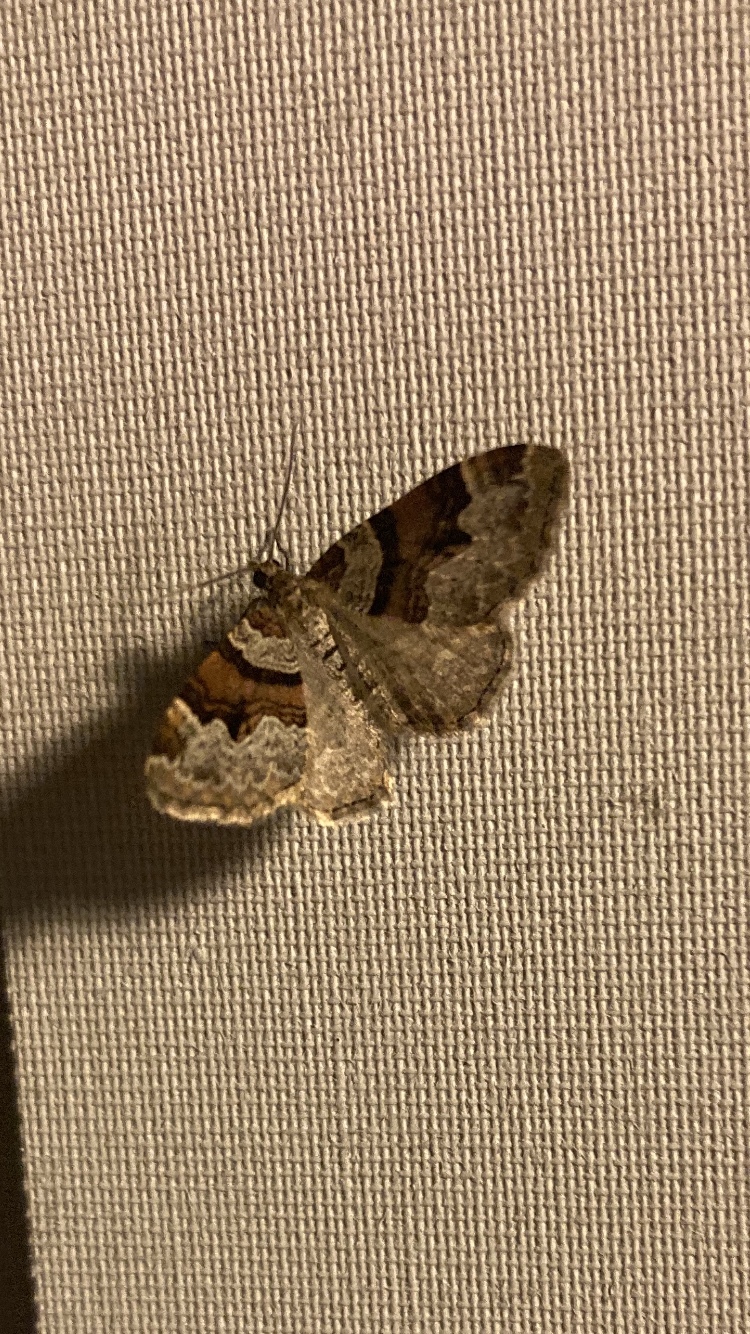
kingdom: Animalia
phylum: Arthropoda
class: Insecta
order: Lepidoptera
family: Geometridae
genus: Xanthorhoe
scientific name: Xanthorhoe designata
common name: Flame carpet
